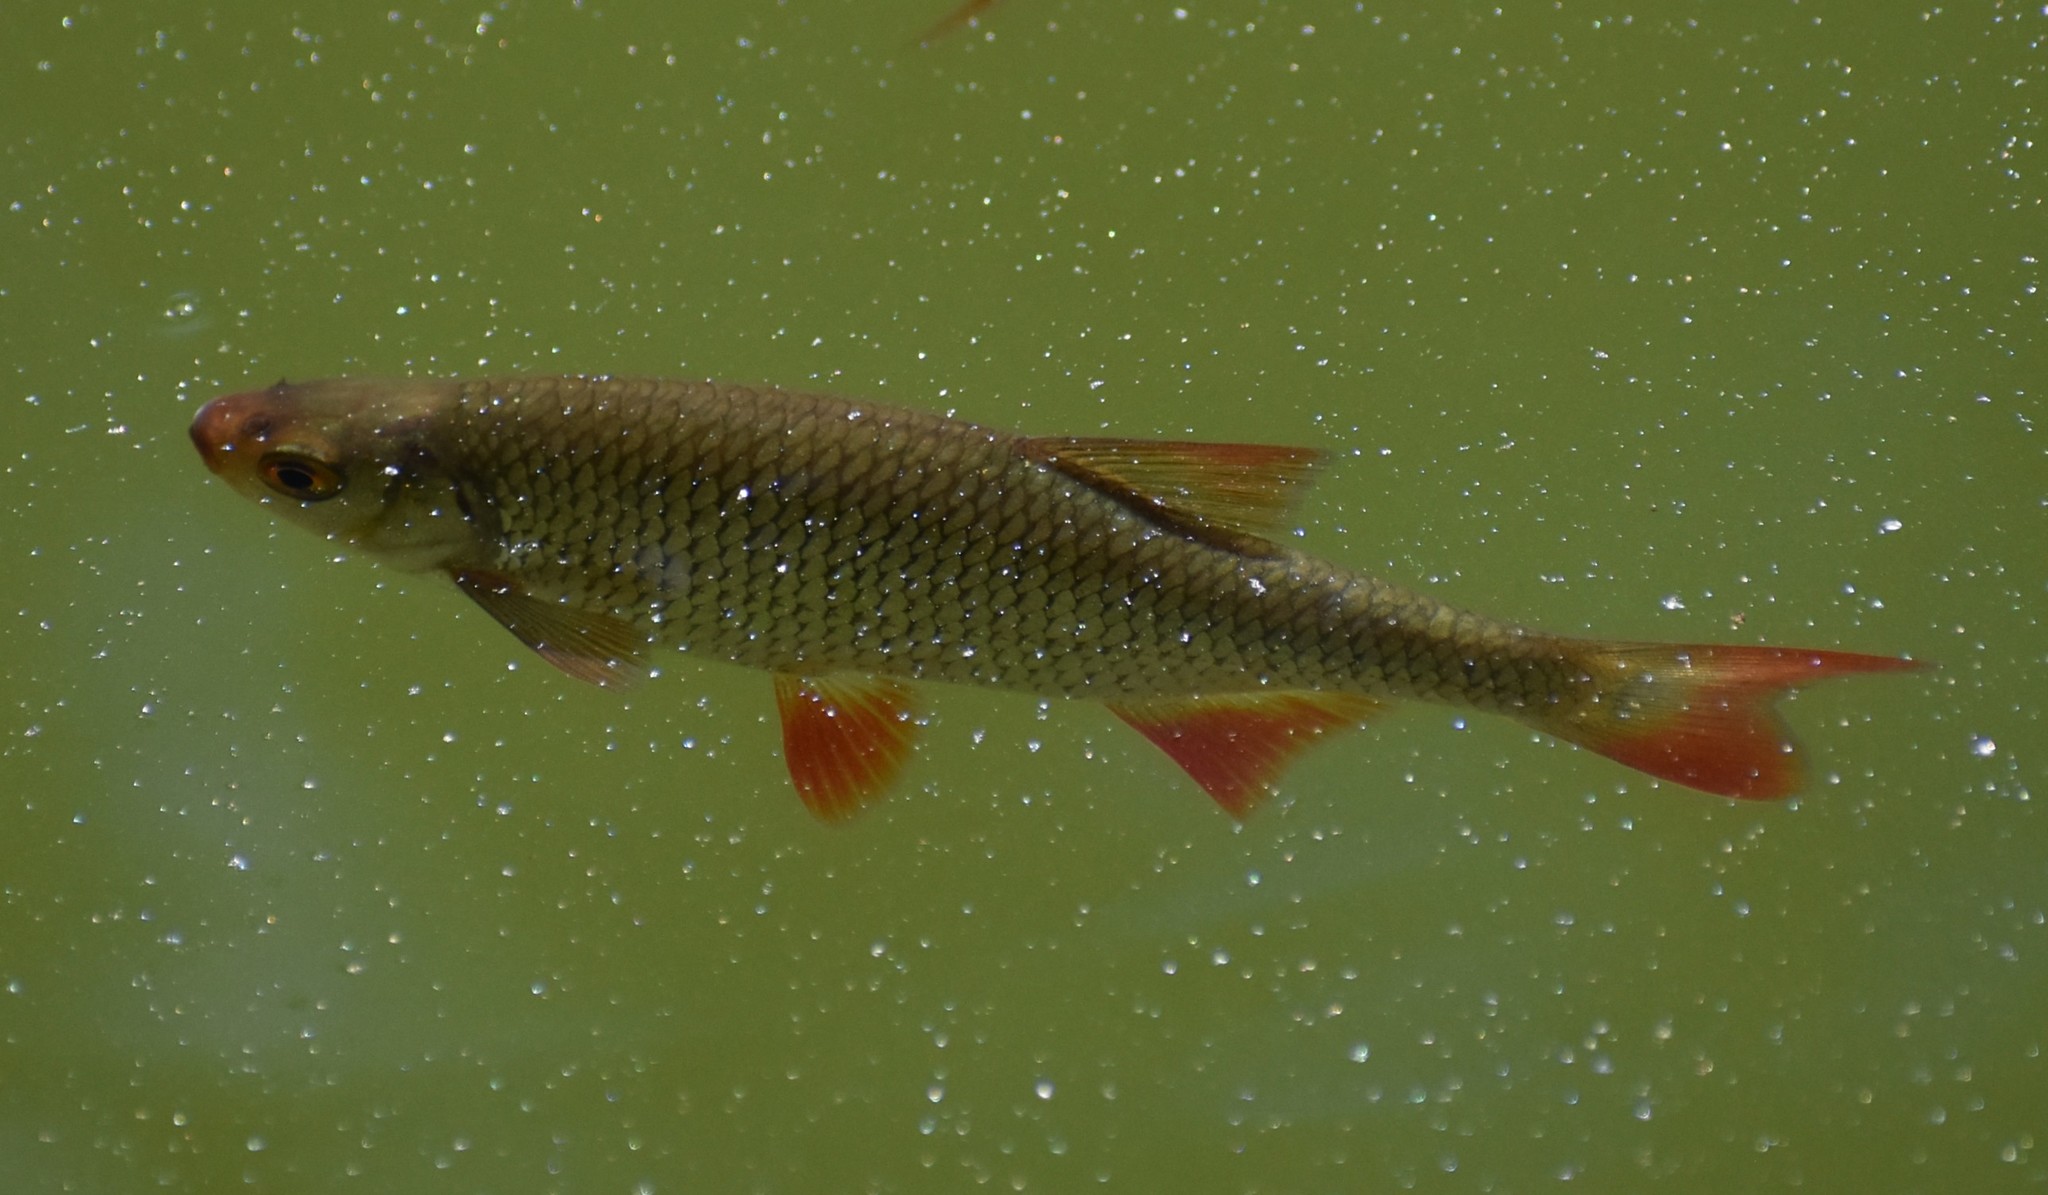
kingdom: Animalia
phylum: Chordata
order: Cypriniformes
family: Cyprinidae
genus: Scardinius
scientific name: Scardinius erythrophthalmus
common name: Rudd
